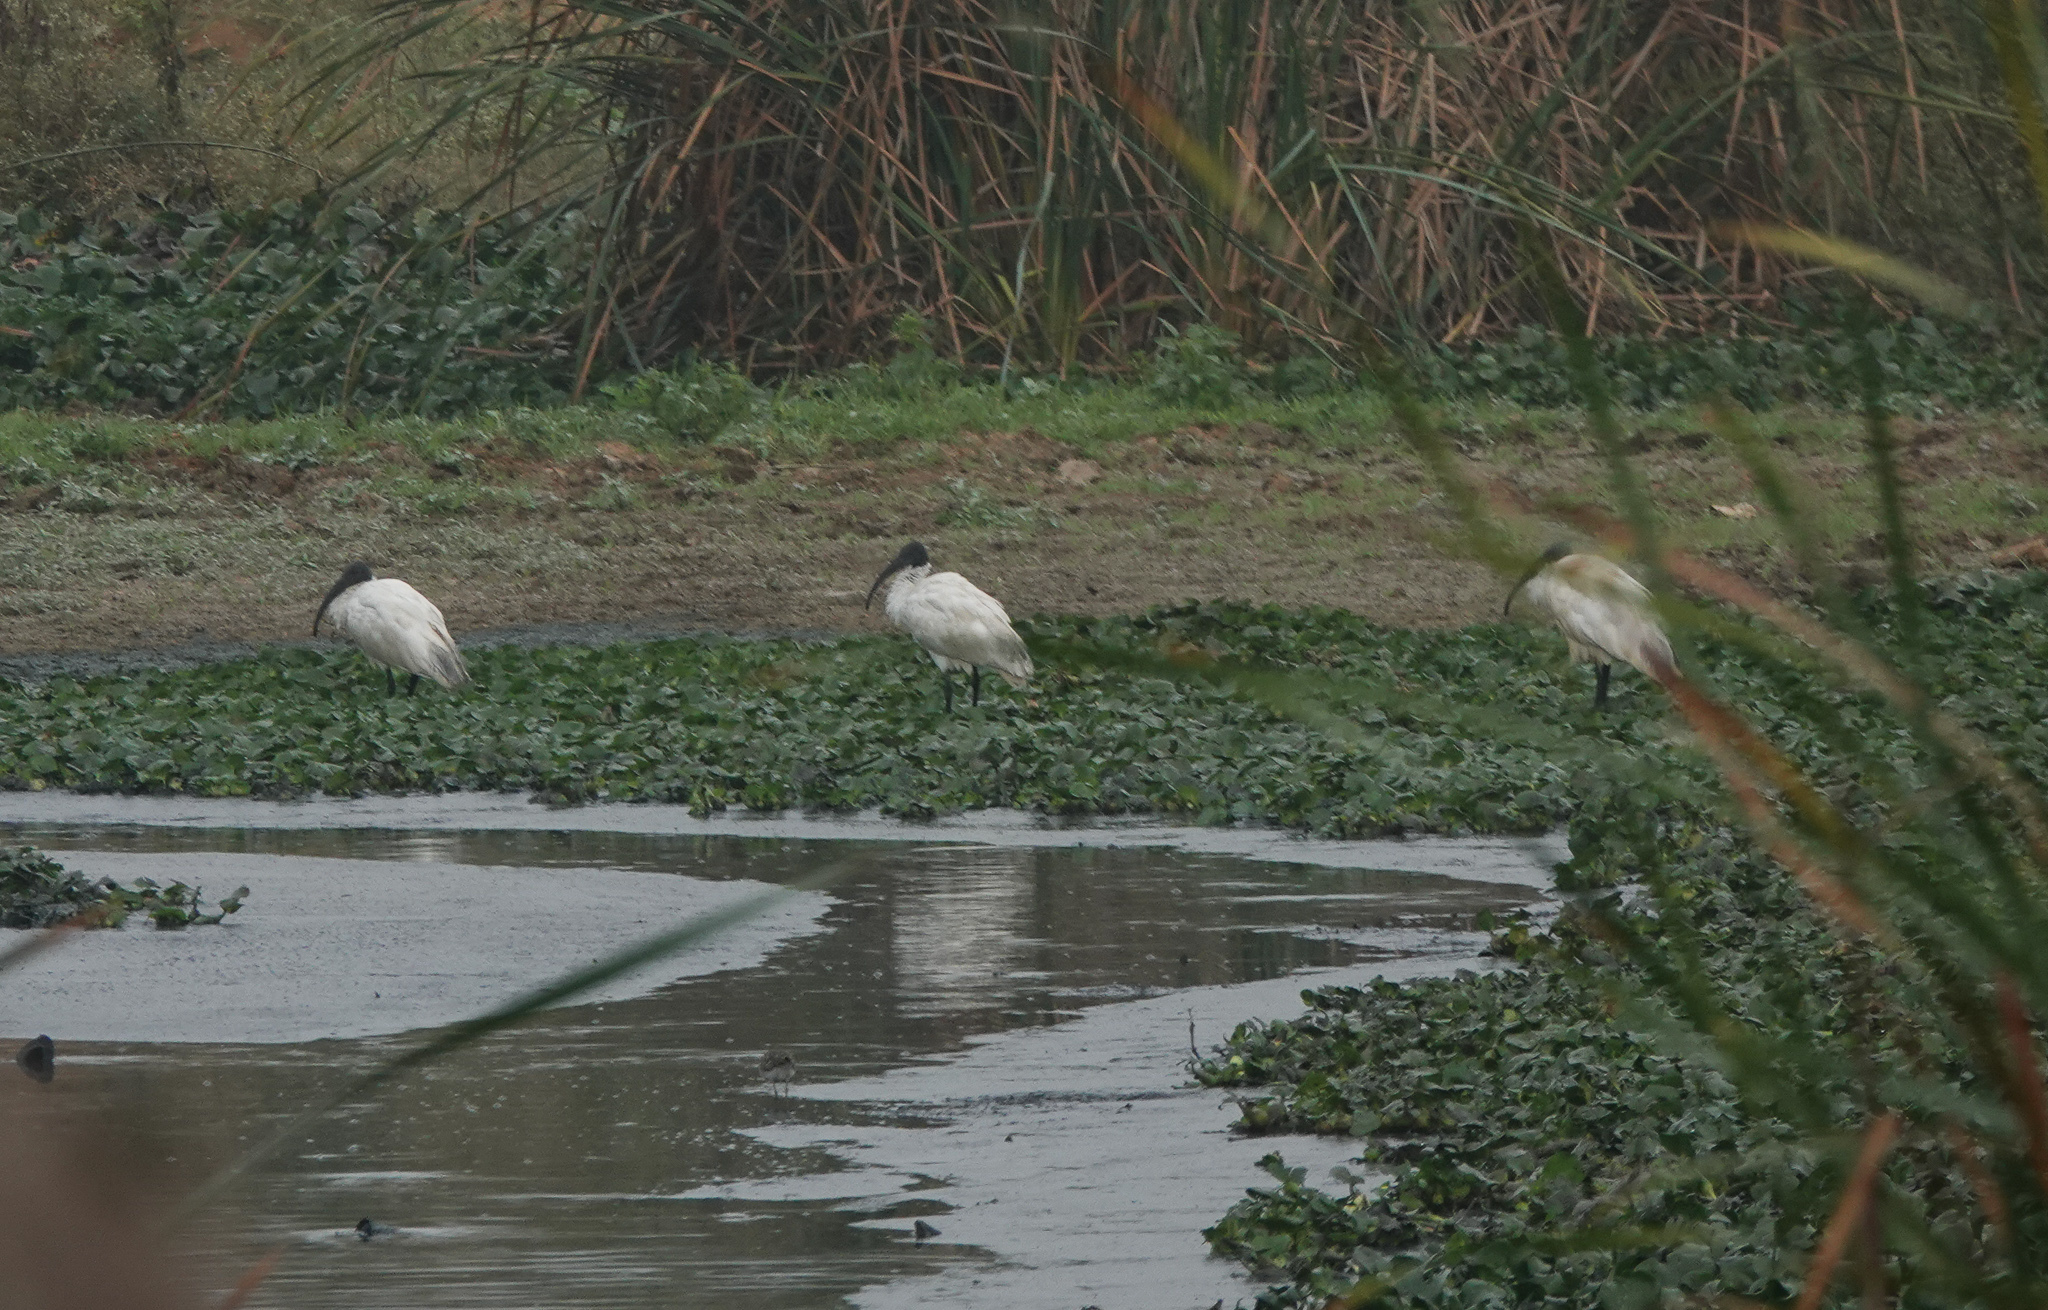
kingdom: Animalia
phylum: Chordata
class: Aves
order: Pelecaniformes
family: Threskiornithidae
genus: Threskiornis
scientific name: Threskiornis melanocephalus
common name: Black-headed ibis
